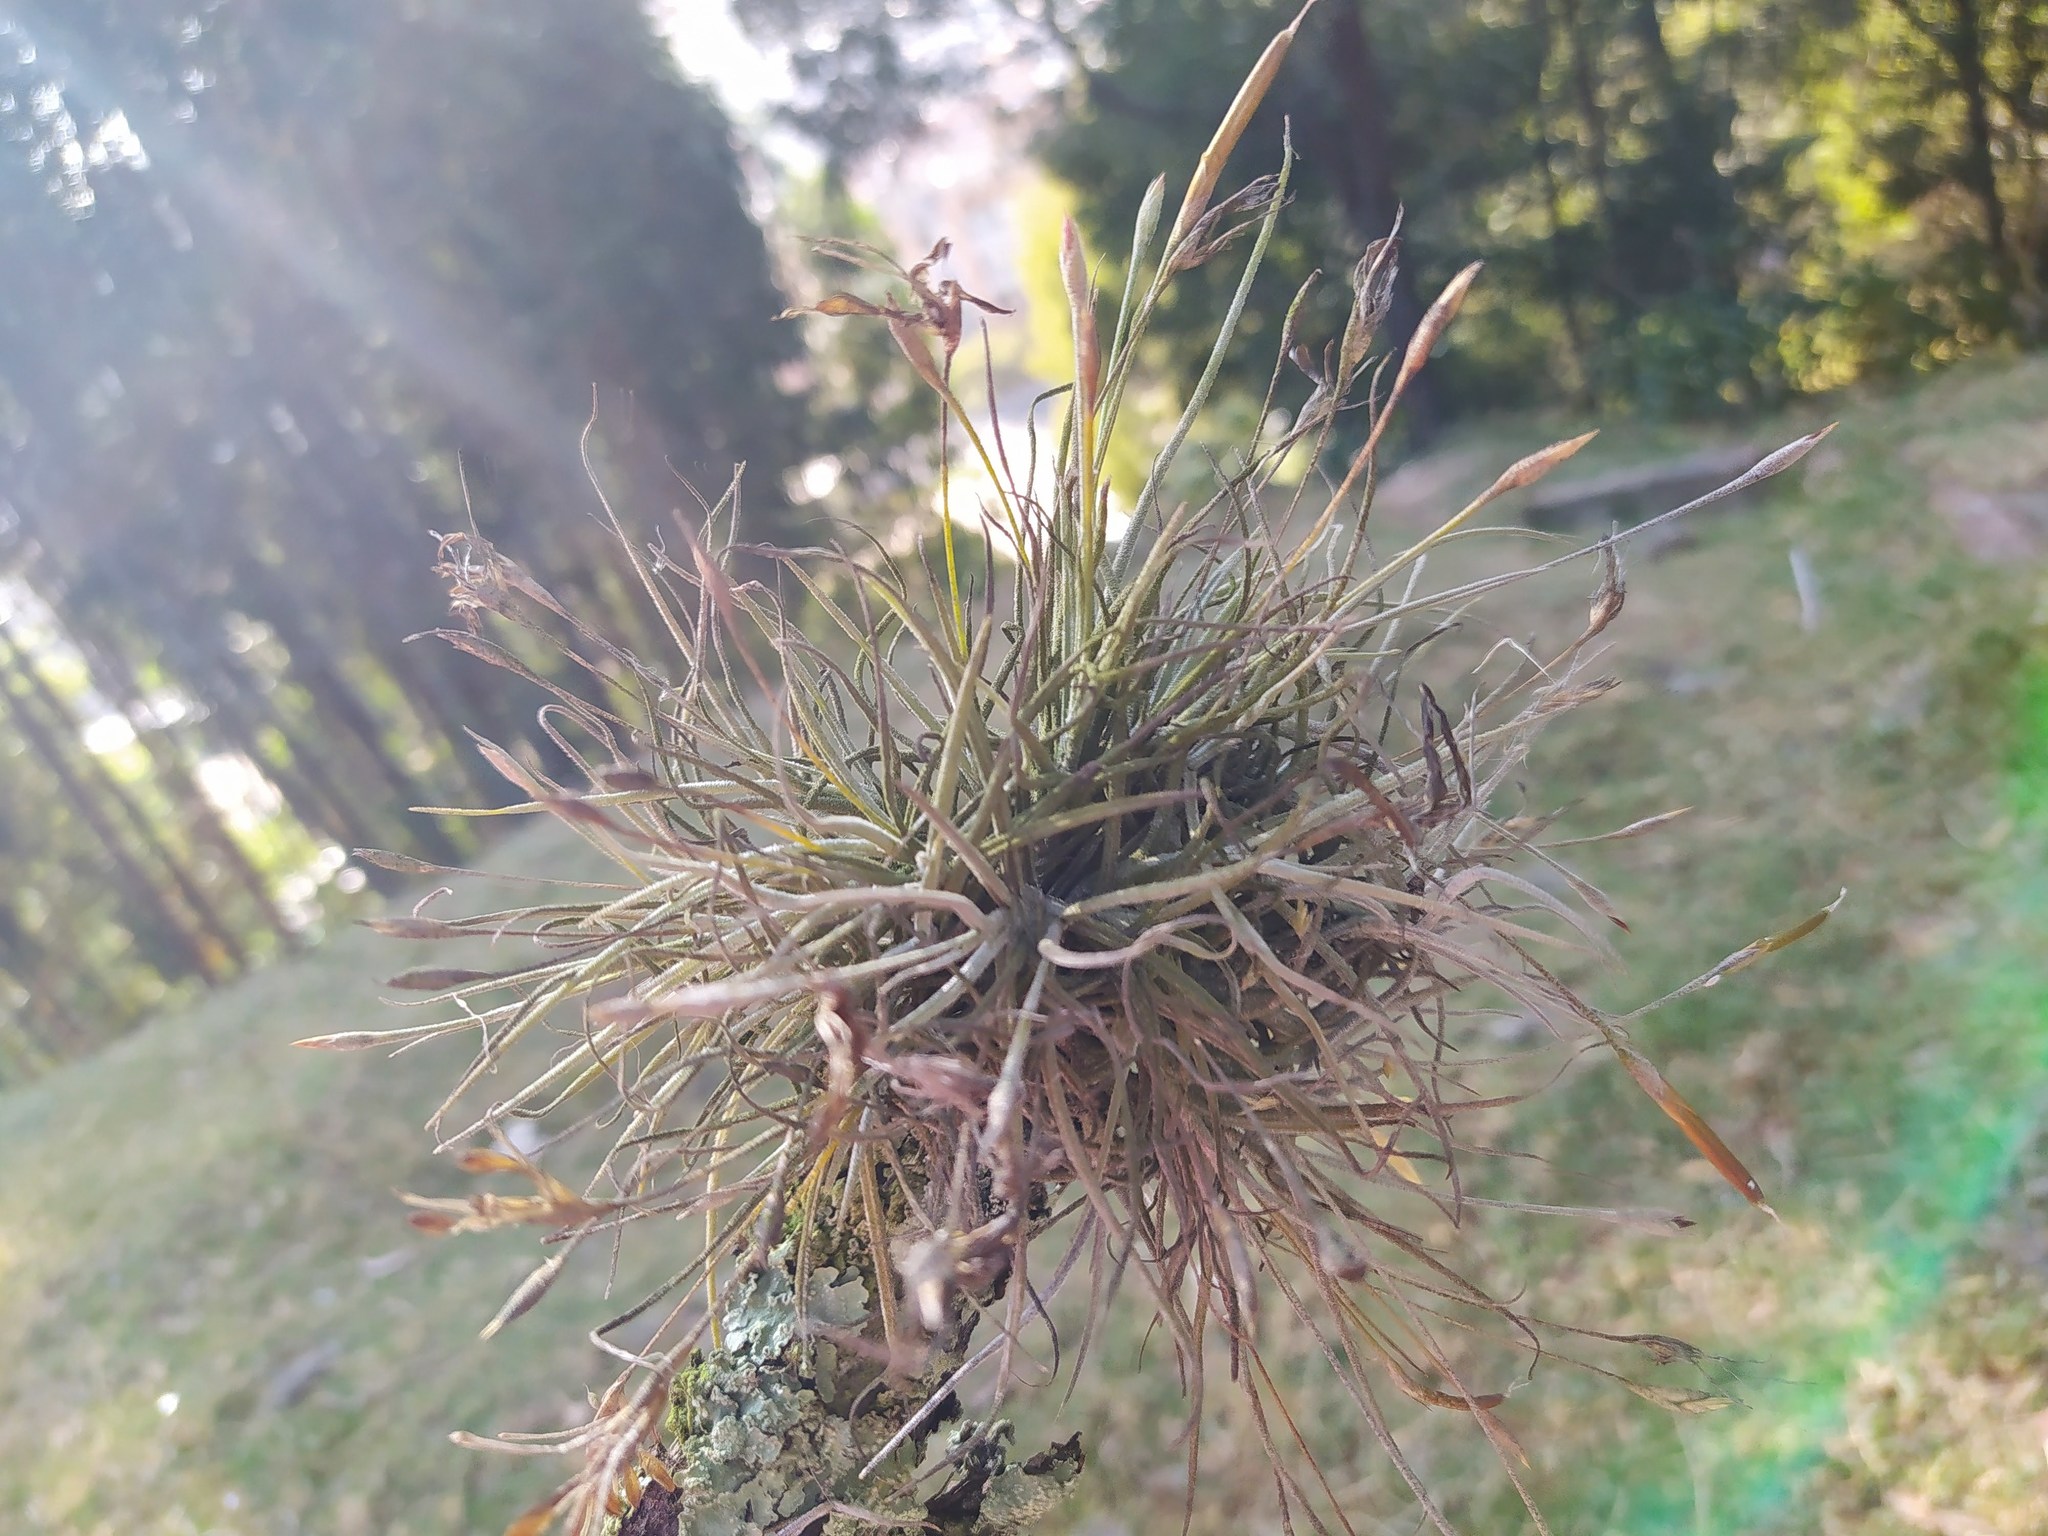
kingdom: Plantae
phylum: Tracheophyta
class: Liliopsida
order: Poales
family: Bromeliaceae
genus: Tillandsia
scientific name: Tillandsia recurvata
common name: Small ballmoss
